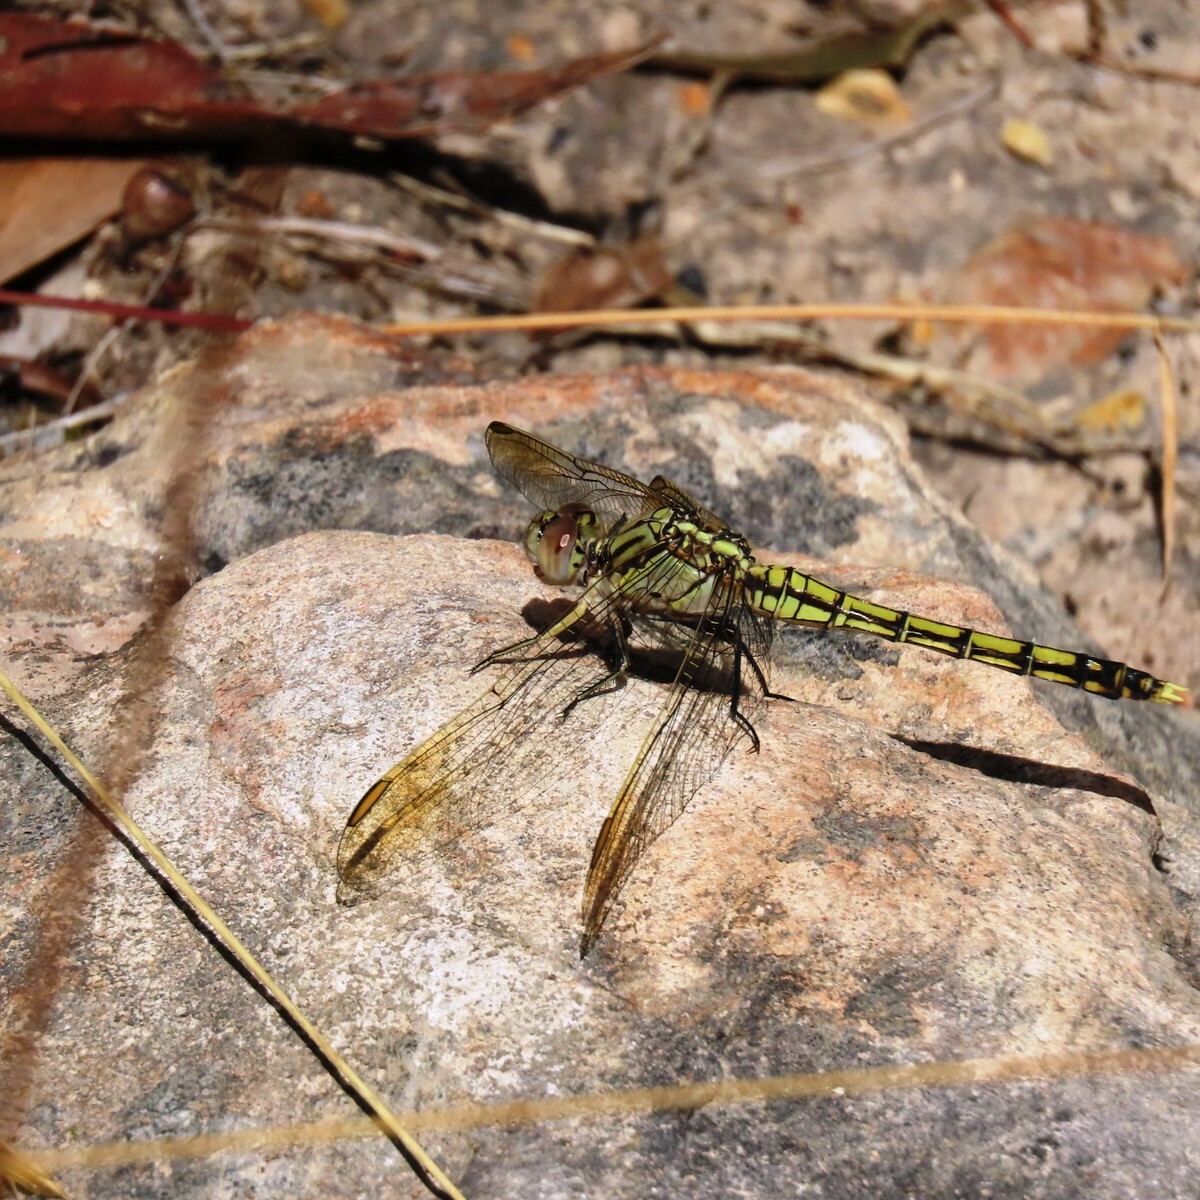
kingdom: Animalia
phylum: Arthropoda
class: Insecta
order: Odonata
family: Libellulidae
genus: Orthetrum
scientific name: Orthetrum caledonicum
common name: Blue skimmer
